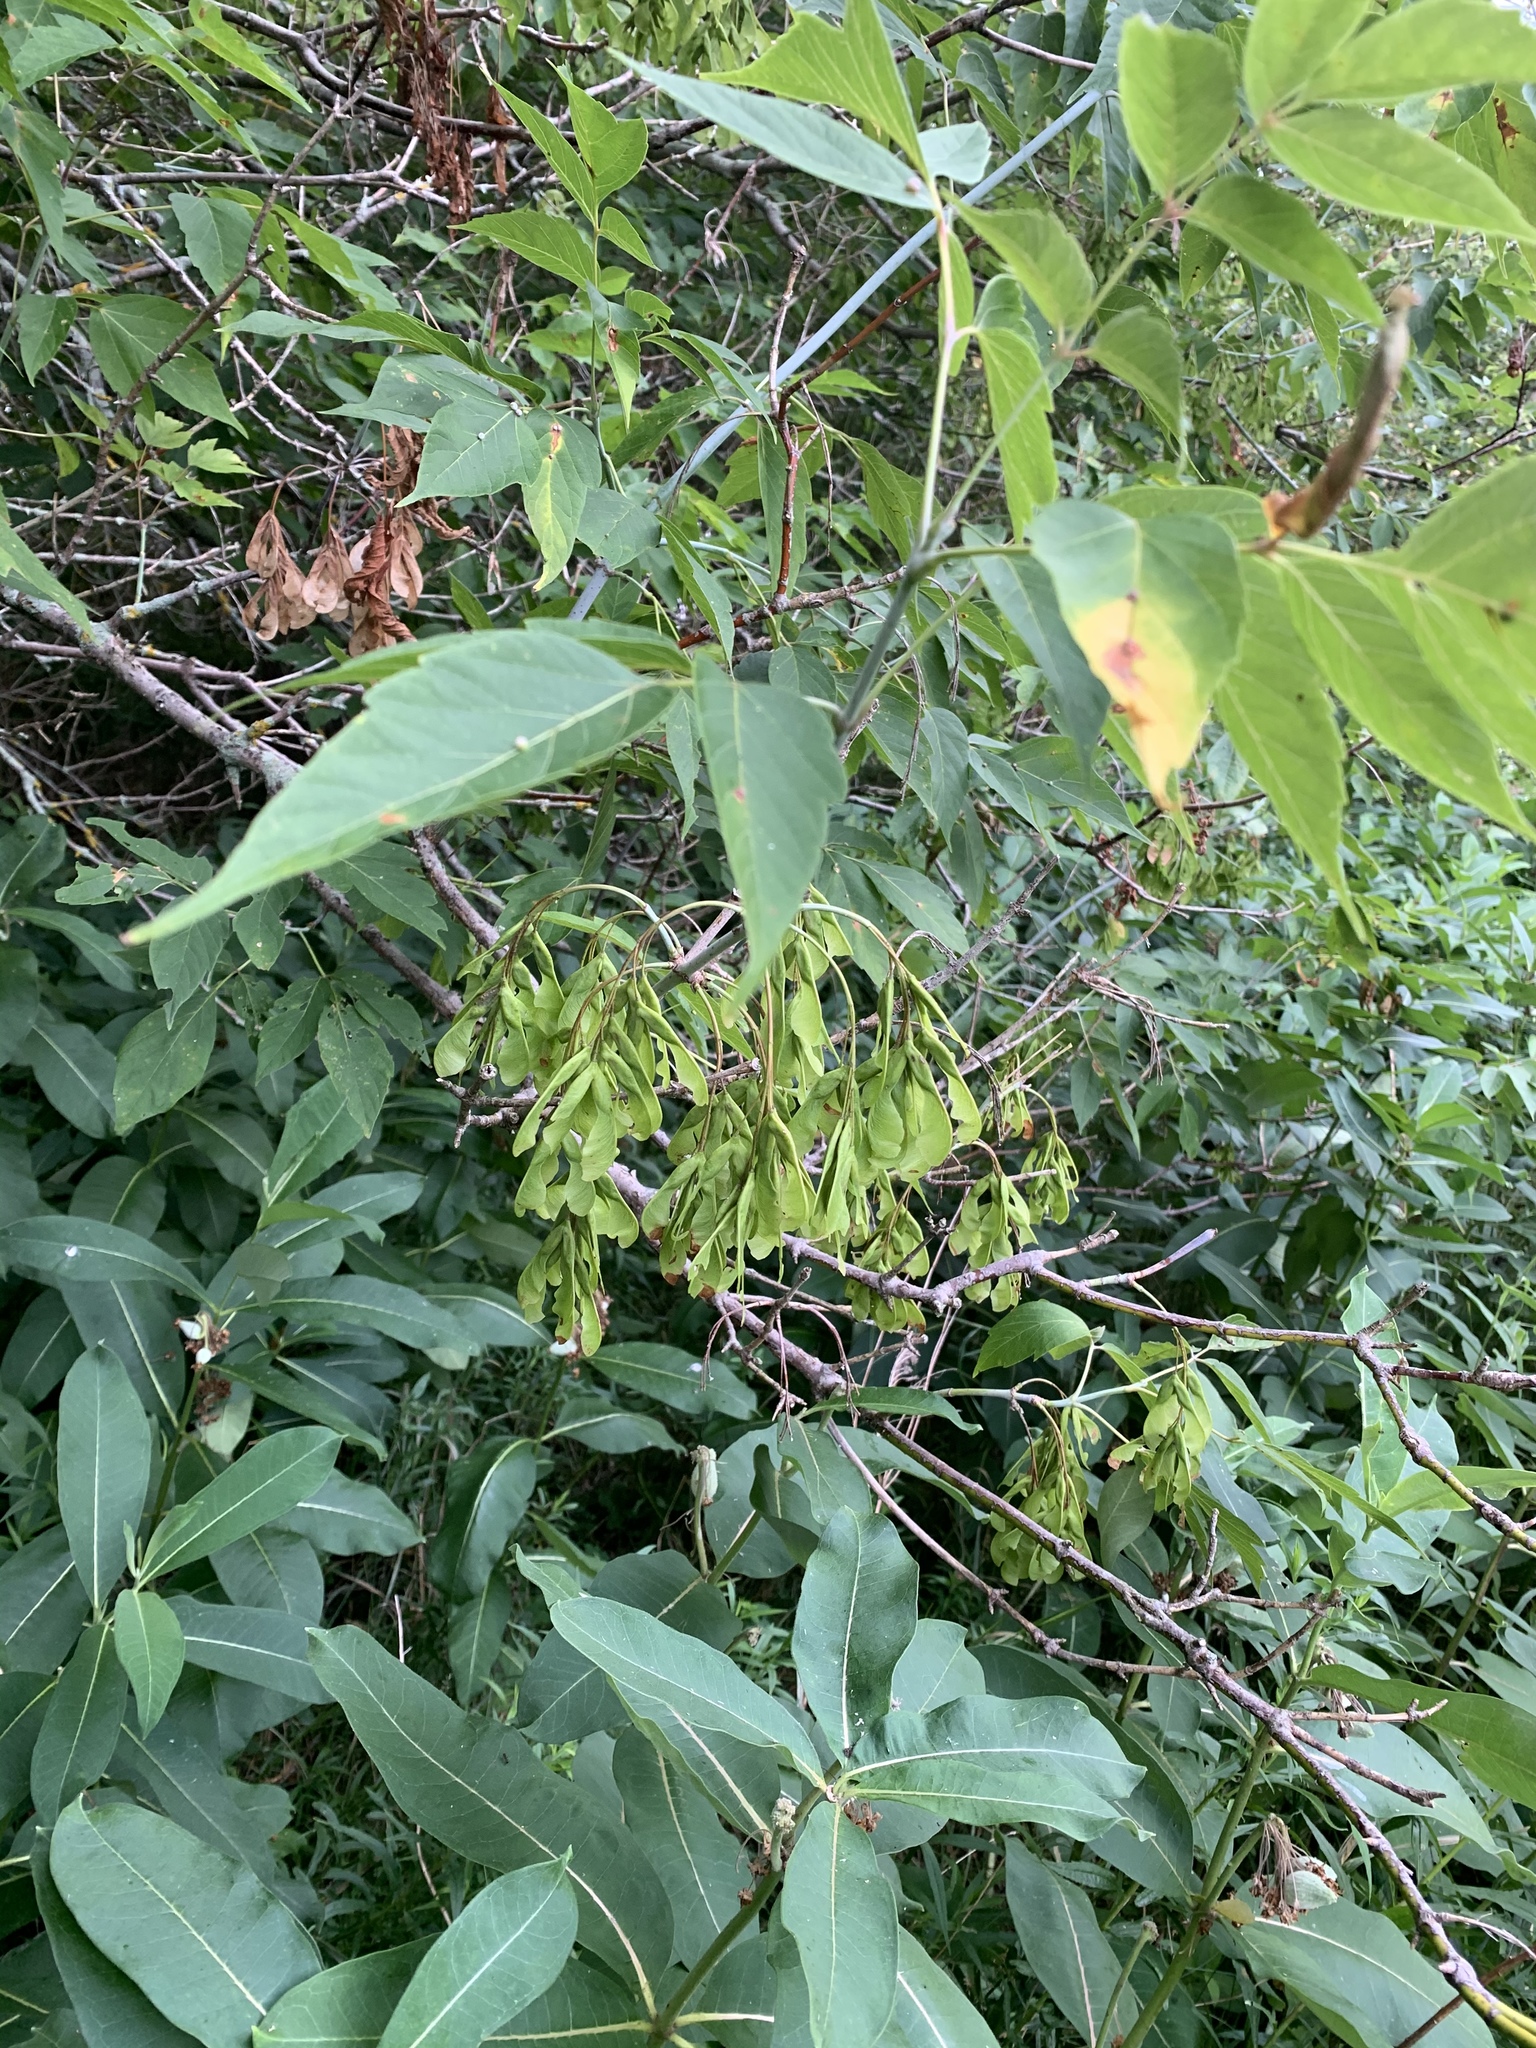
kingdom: Plantae
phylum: Tracheophyta
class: Magnoliopsida
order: Sapindales
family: Sapindaceae
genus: Acer
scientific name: Acer negundo
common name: Ashleaf maple
